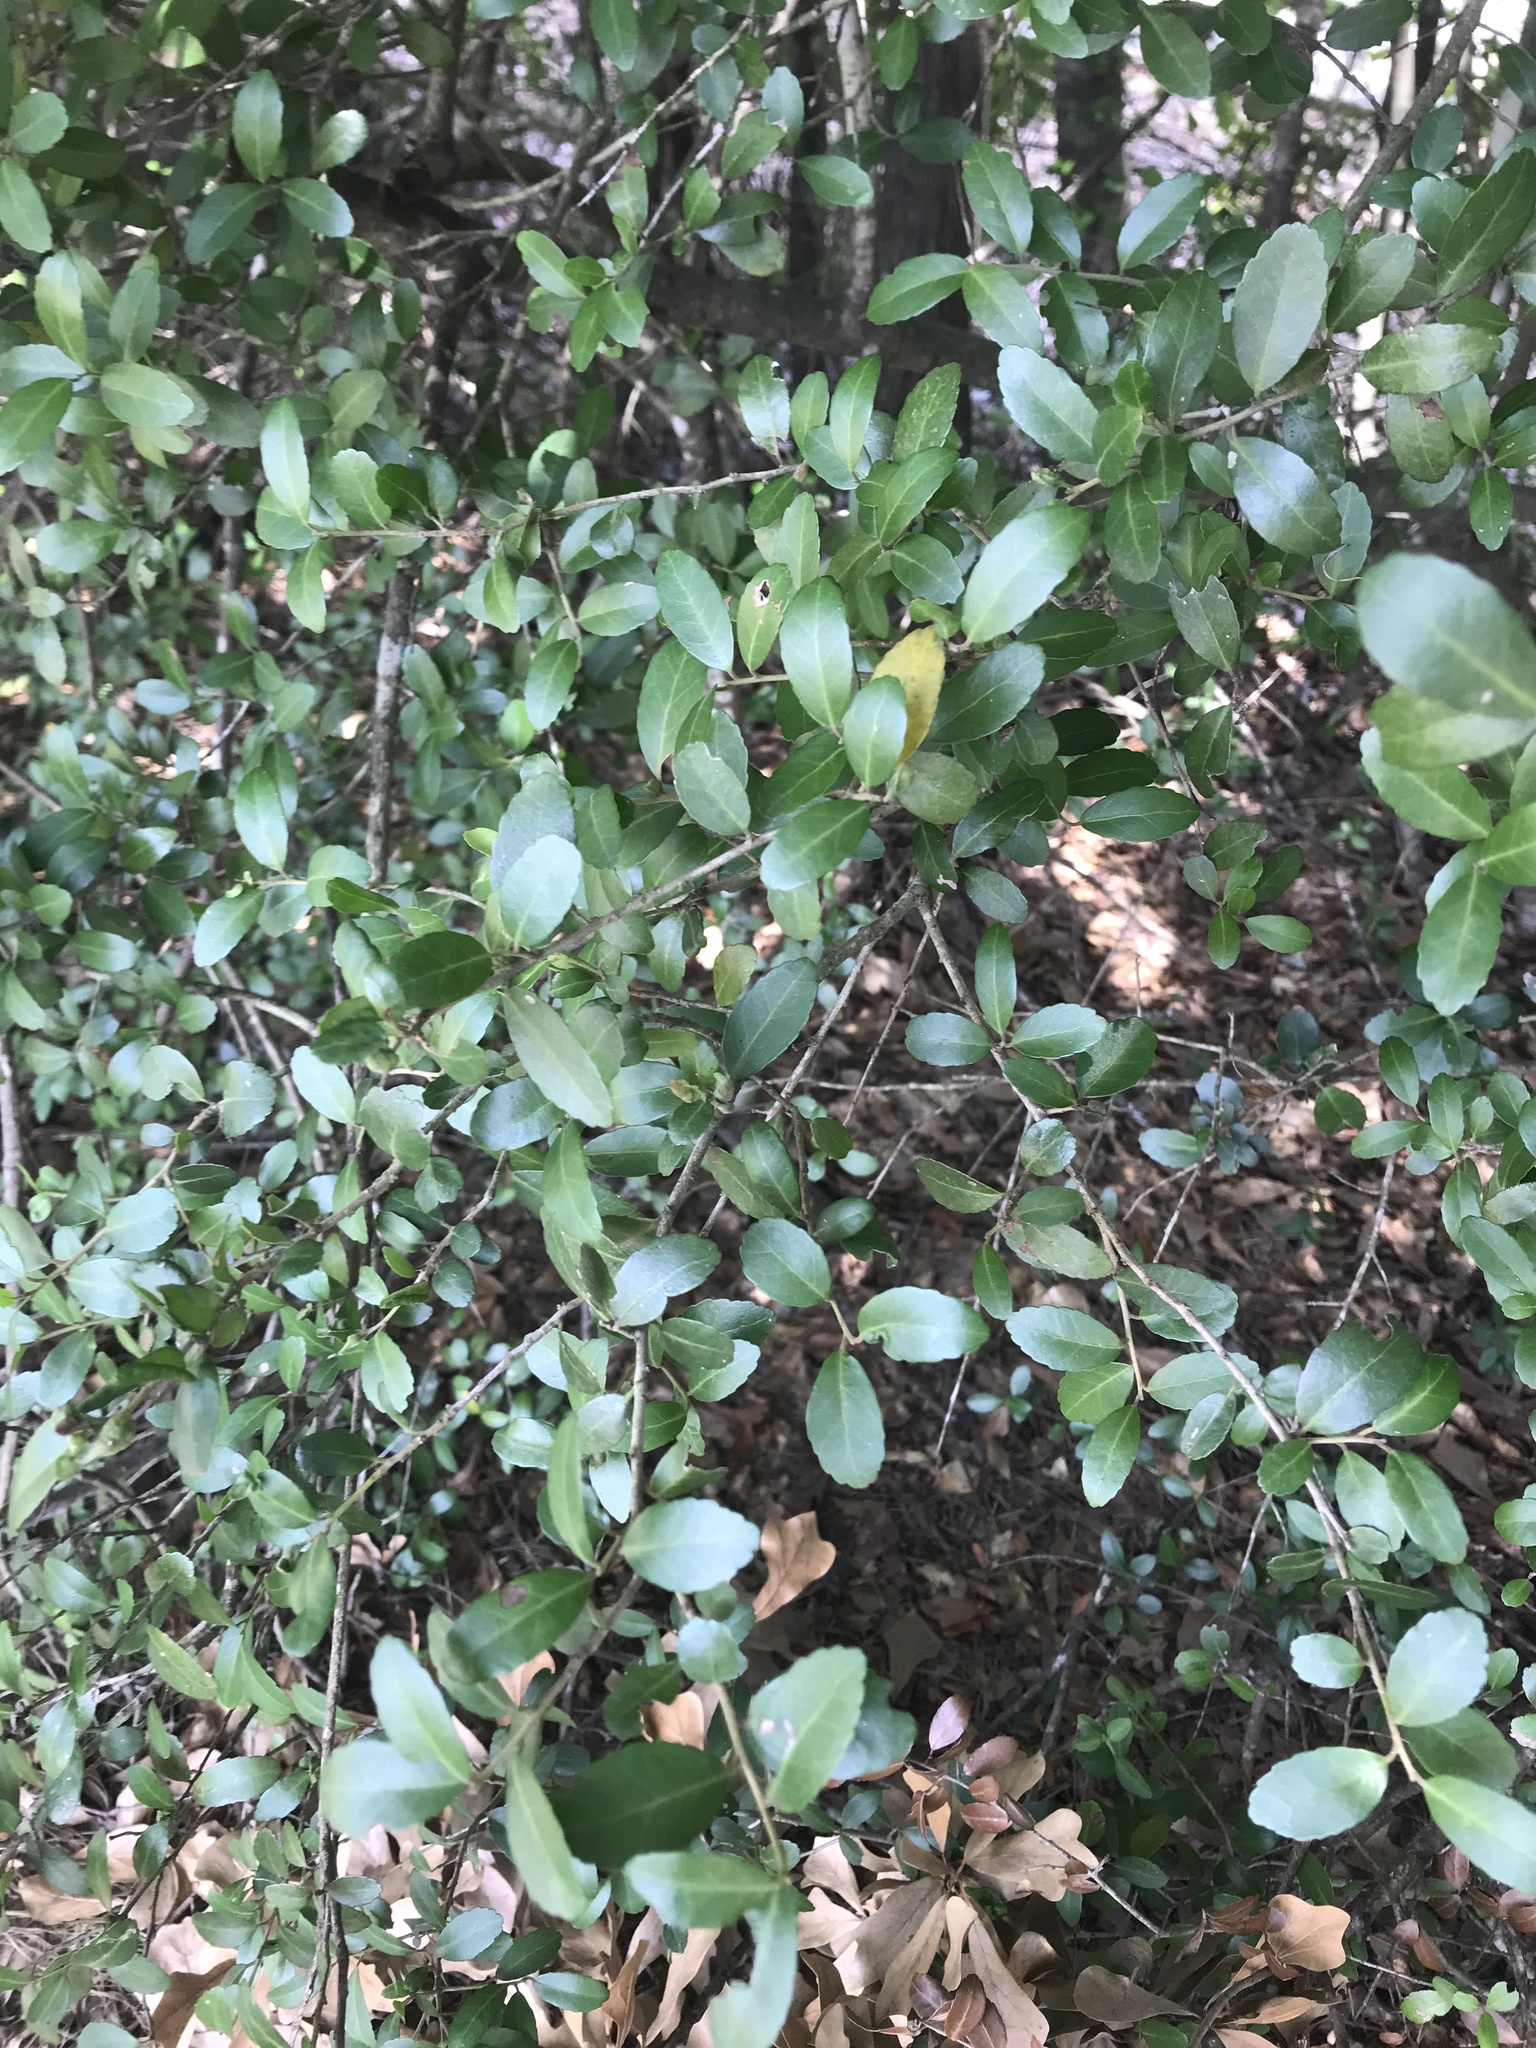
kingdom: Plantae
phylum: Tracheophyta
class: Magnoliopsida
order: Aquifoliales
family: Aquifoliaceae
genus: Ilex
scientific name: Ilex vomitoria
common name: Yaupon holly
